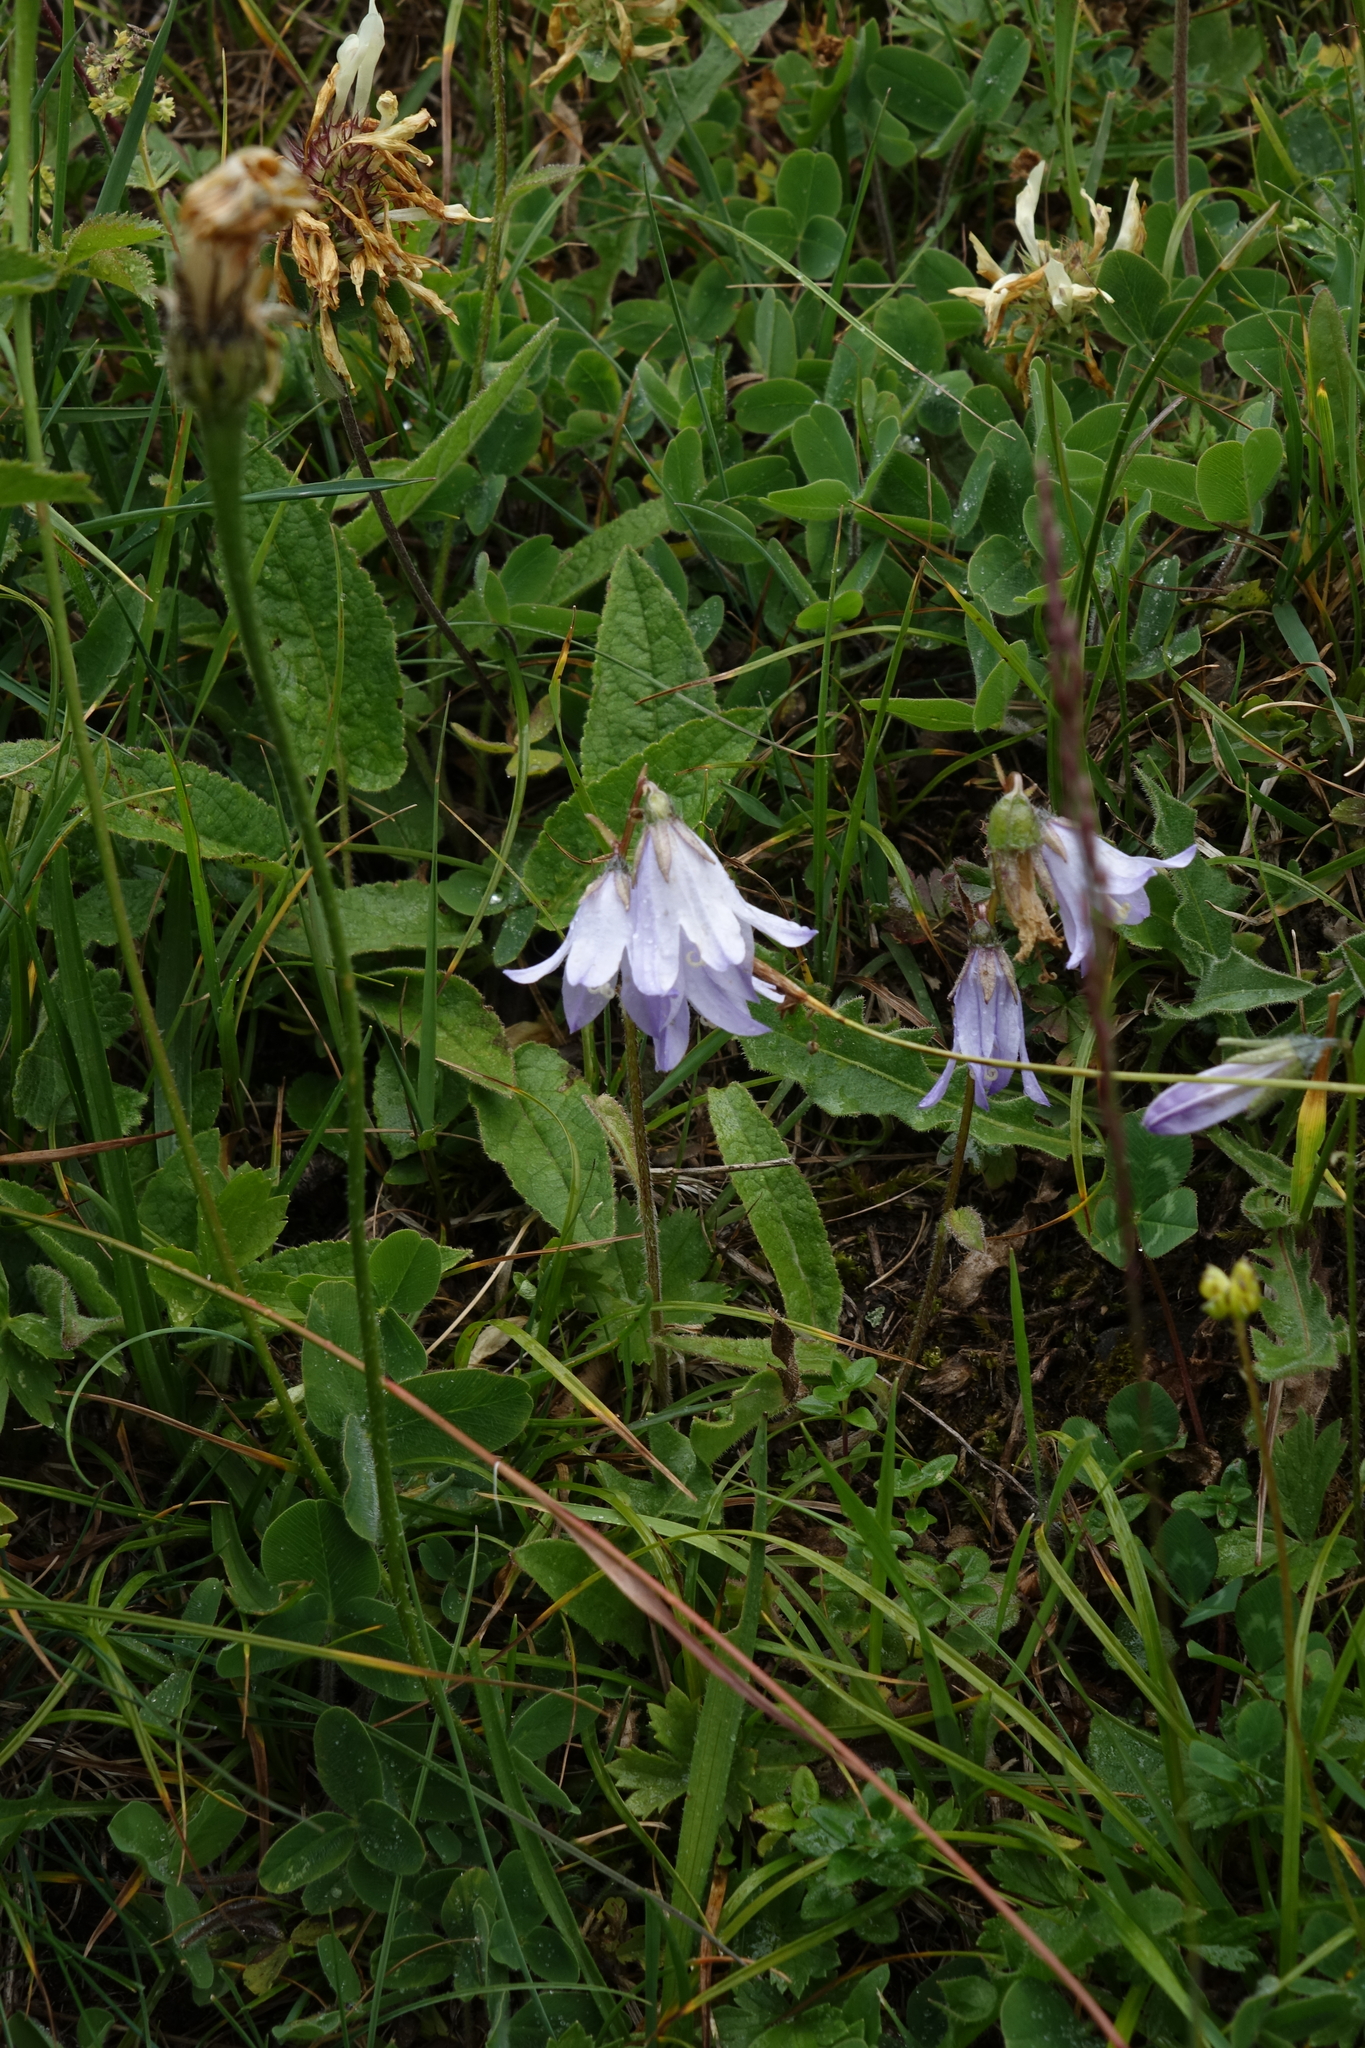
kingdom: Plantae
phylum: Tracheophyta
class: Magnoliopsida
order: Asterales
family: Campanulaceae
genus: Campanula
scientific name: Campanula collina
